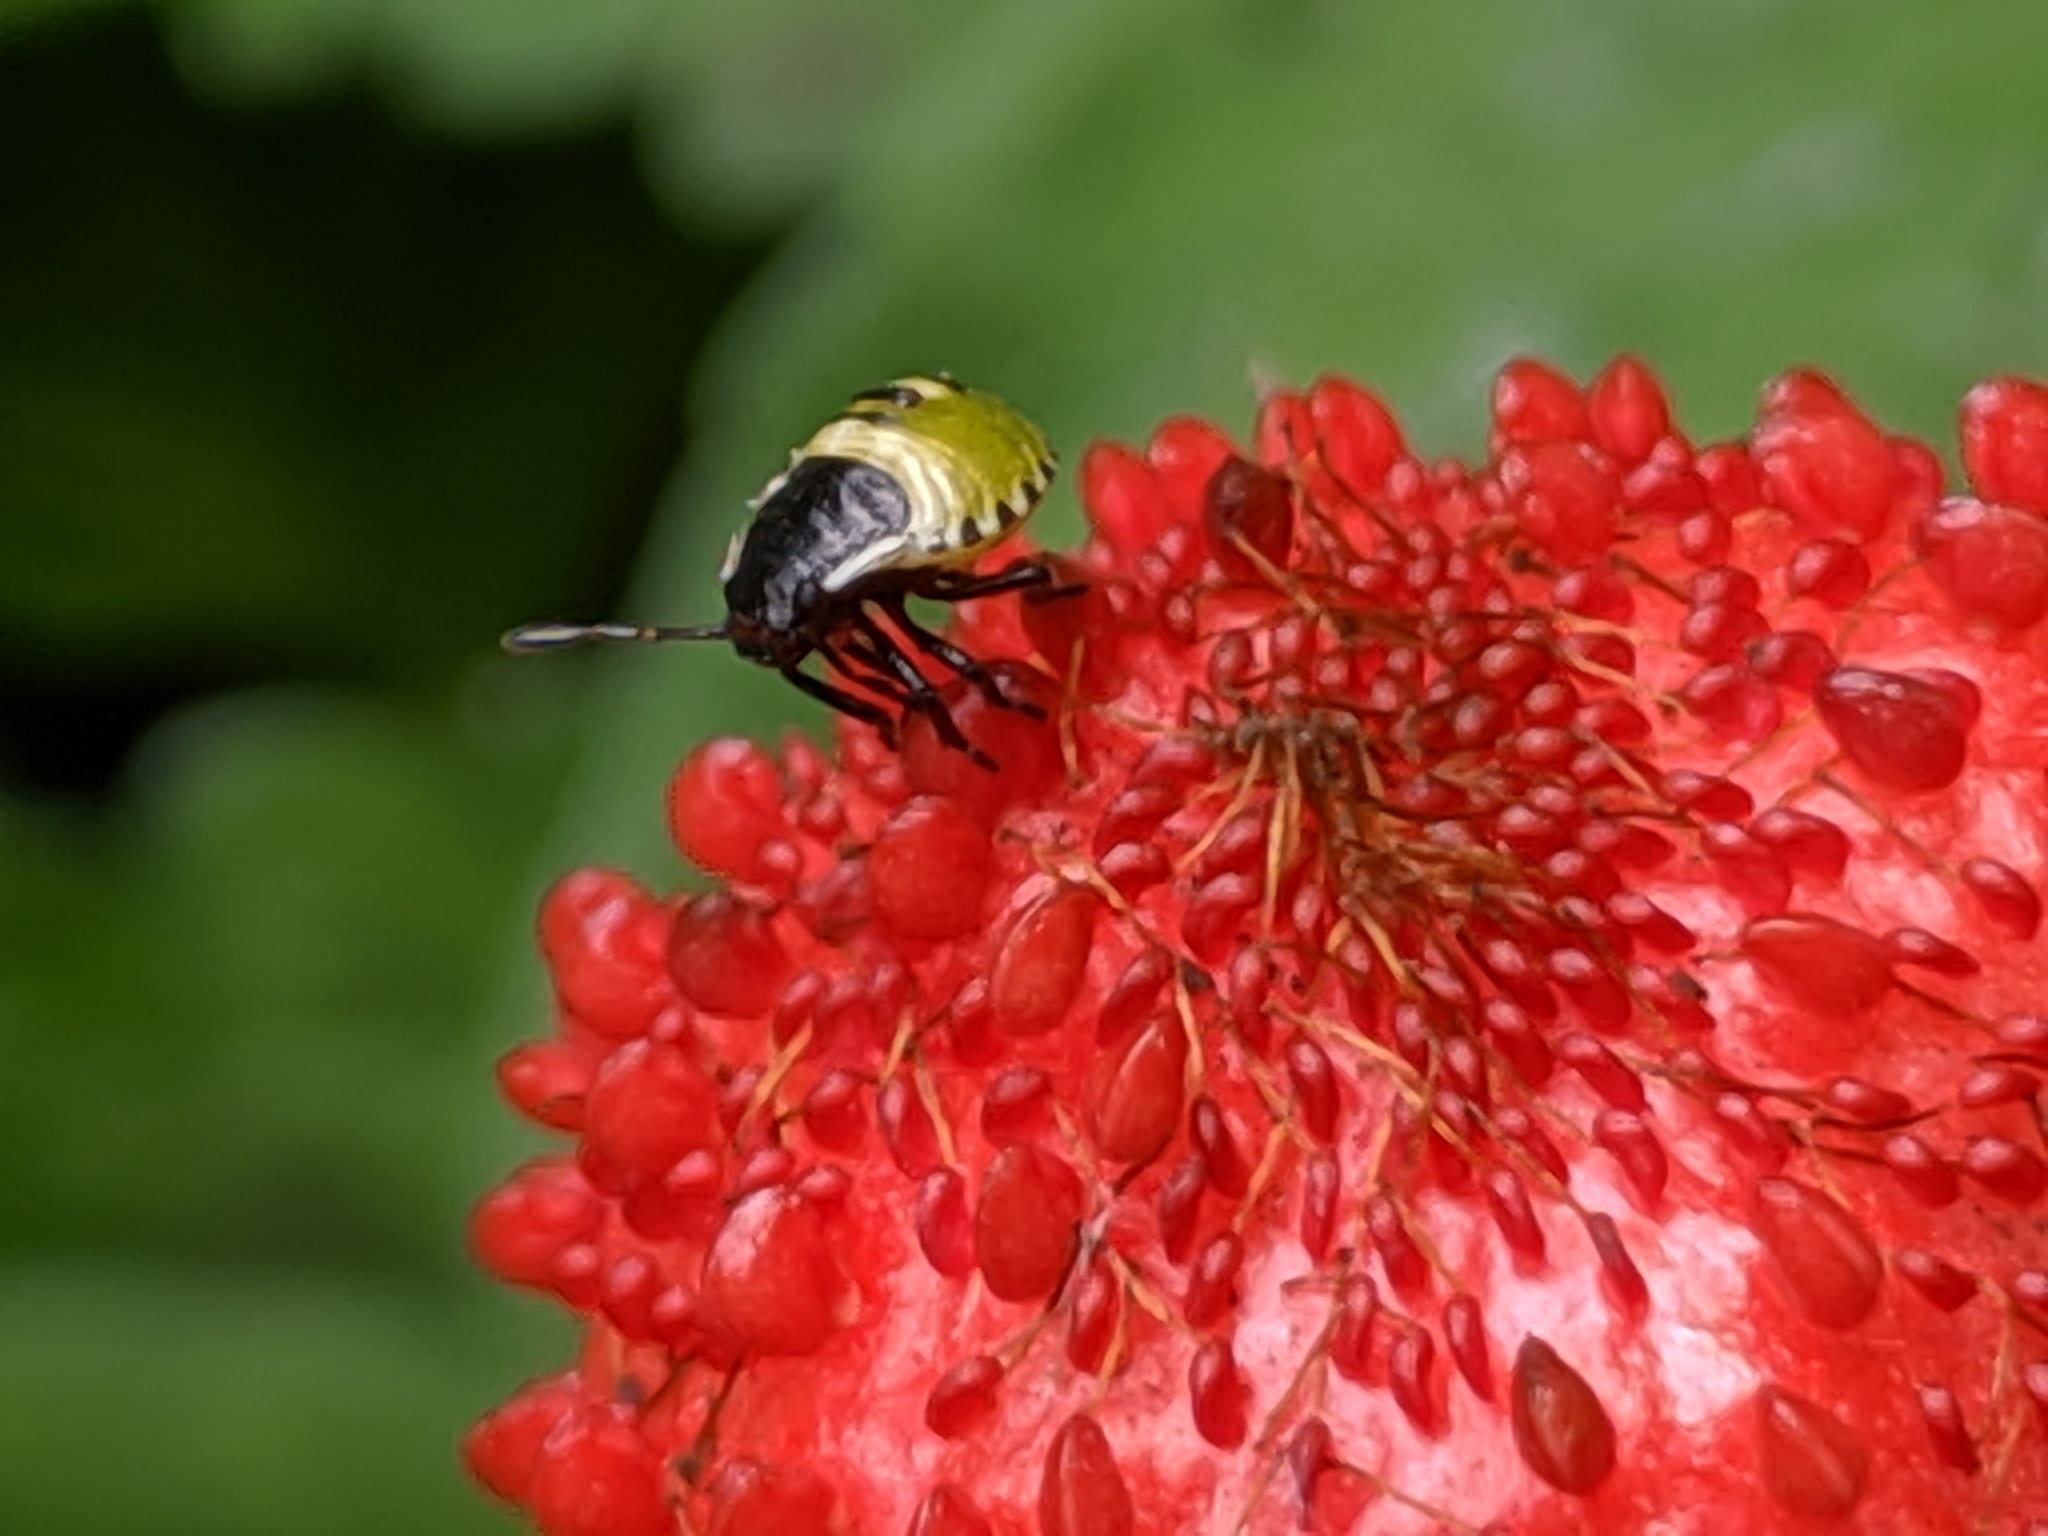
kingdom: Animalia
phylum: Arthropoda
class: Insecta
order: Hemiptera
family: Pentatomidae
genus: Palomena
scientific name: Palomena prasina
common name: Green shieldbug
